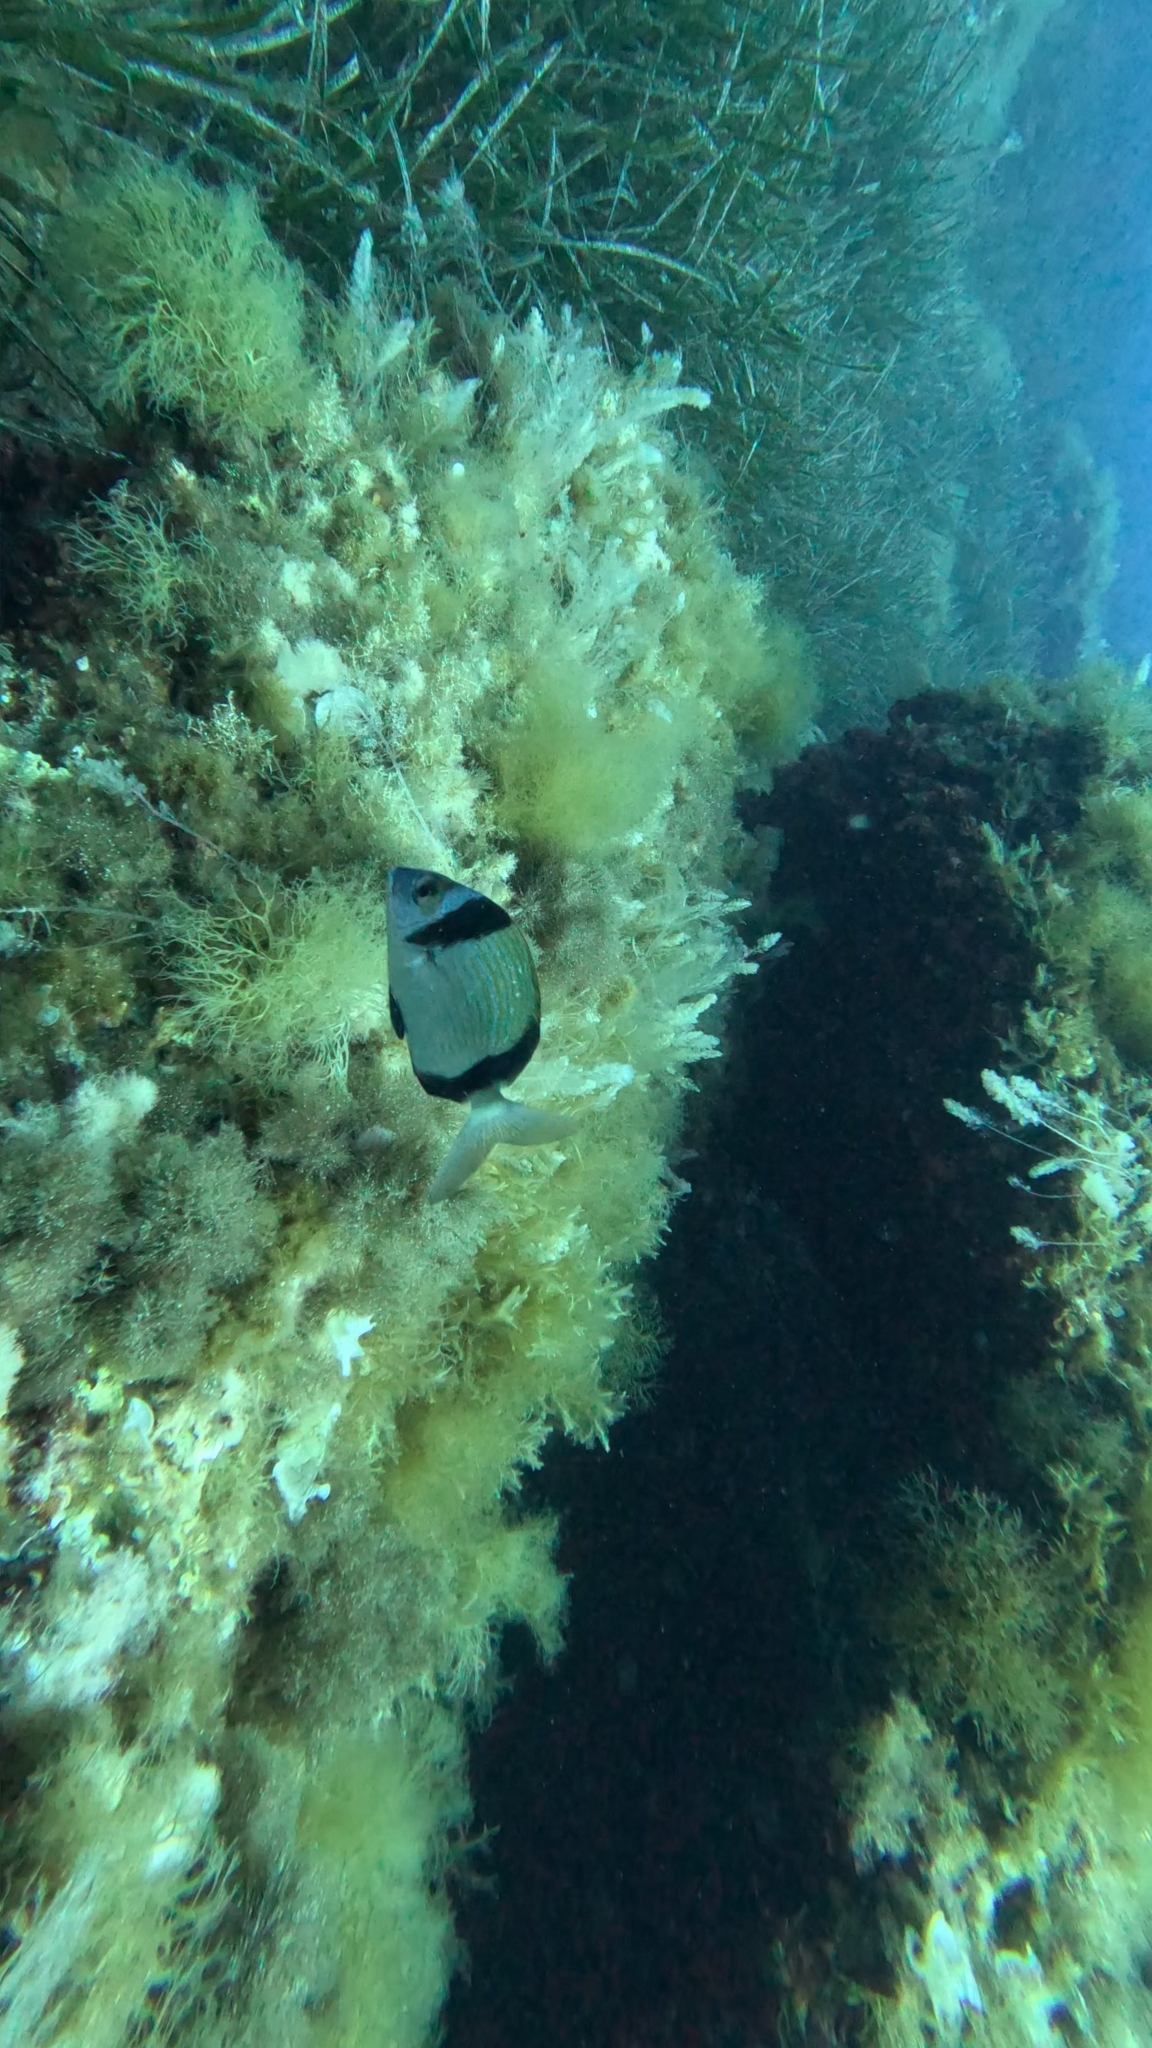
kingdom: Animalia
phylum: Chordata
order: Perciformes
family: Sparidae
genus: Diplodus
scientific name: Diplodus vulgaris
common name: Common two-banded seabream
